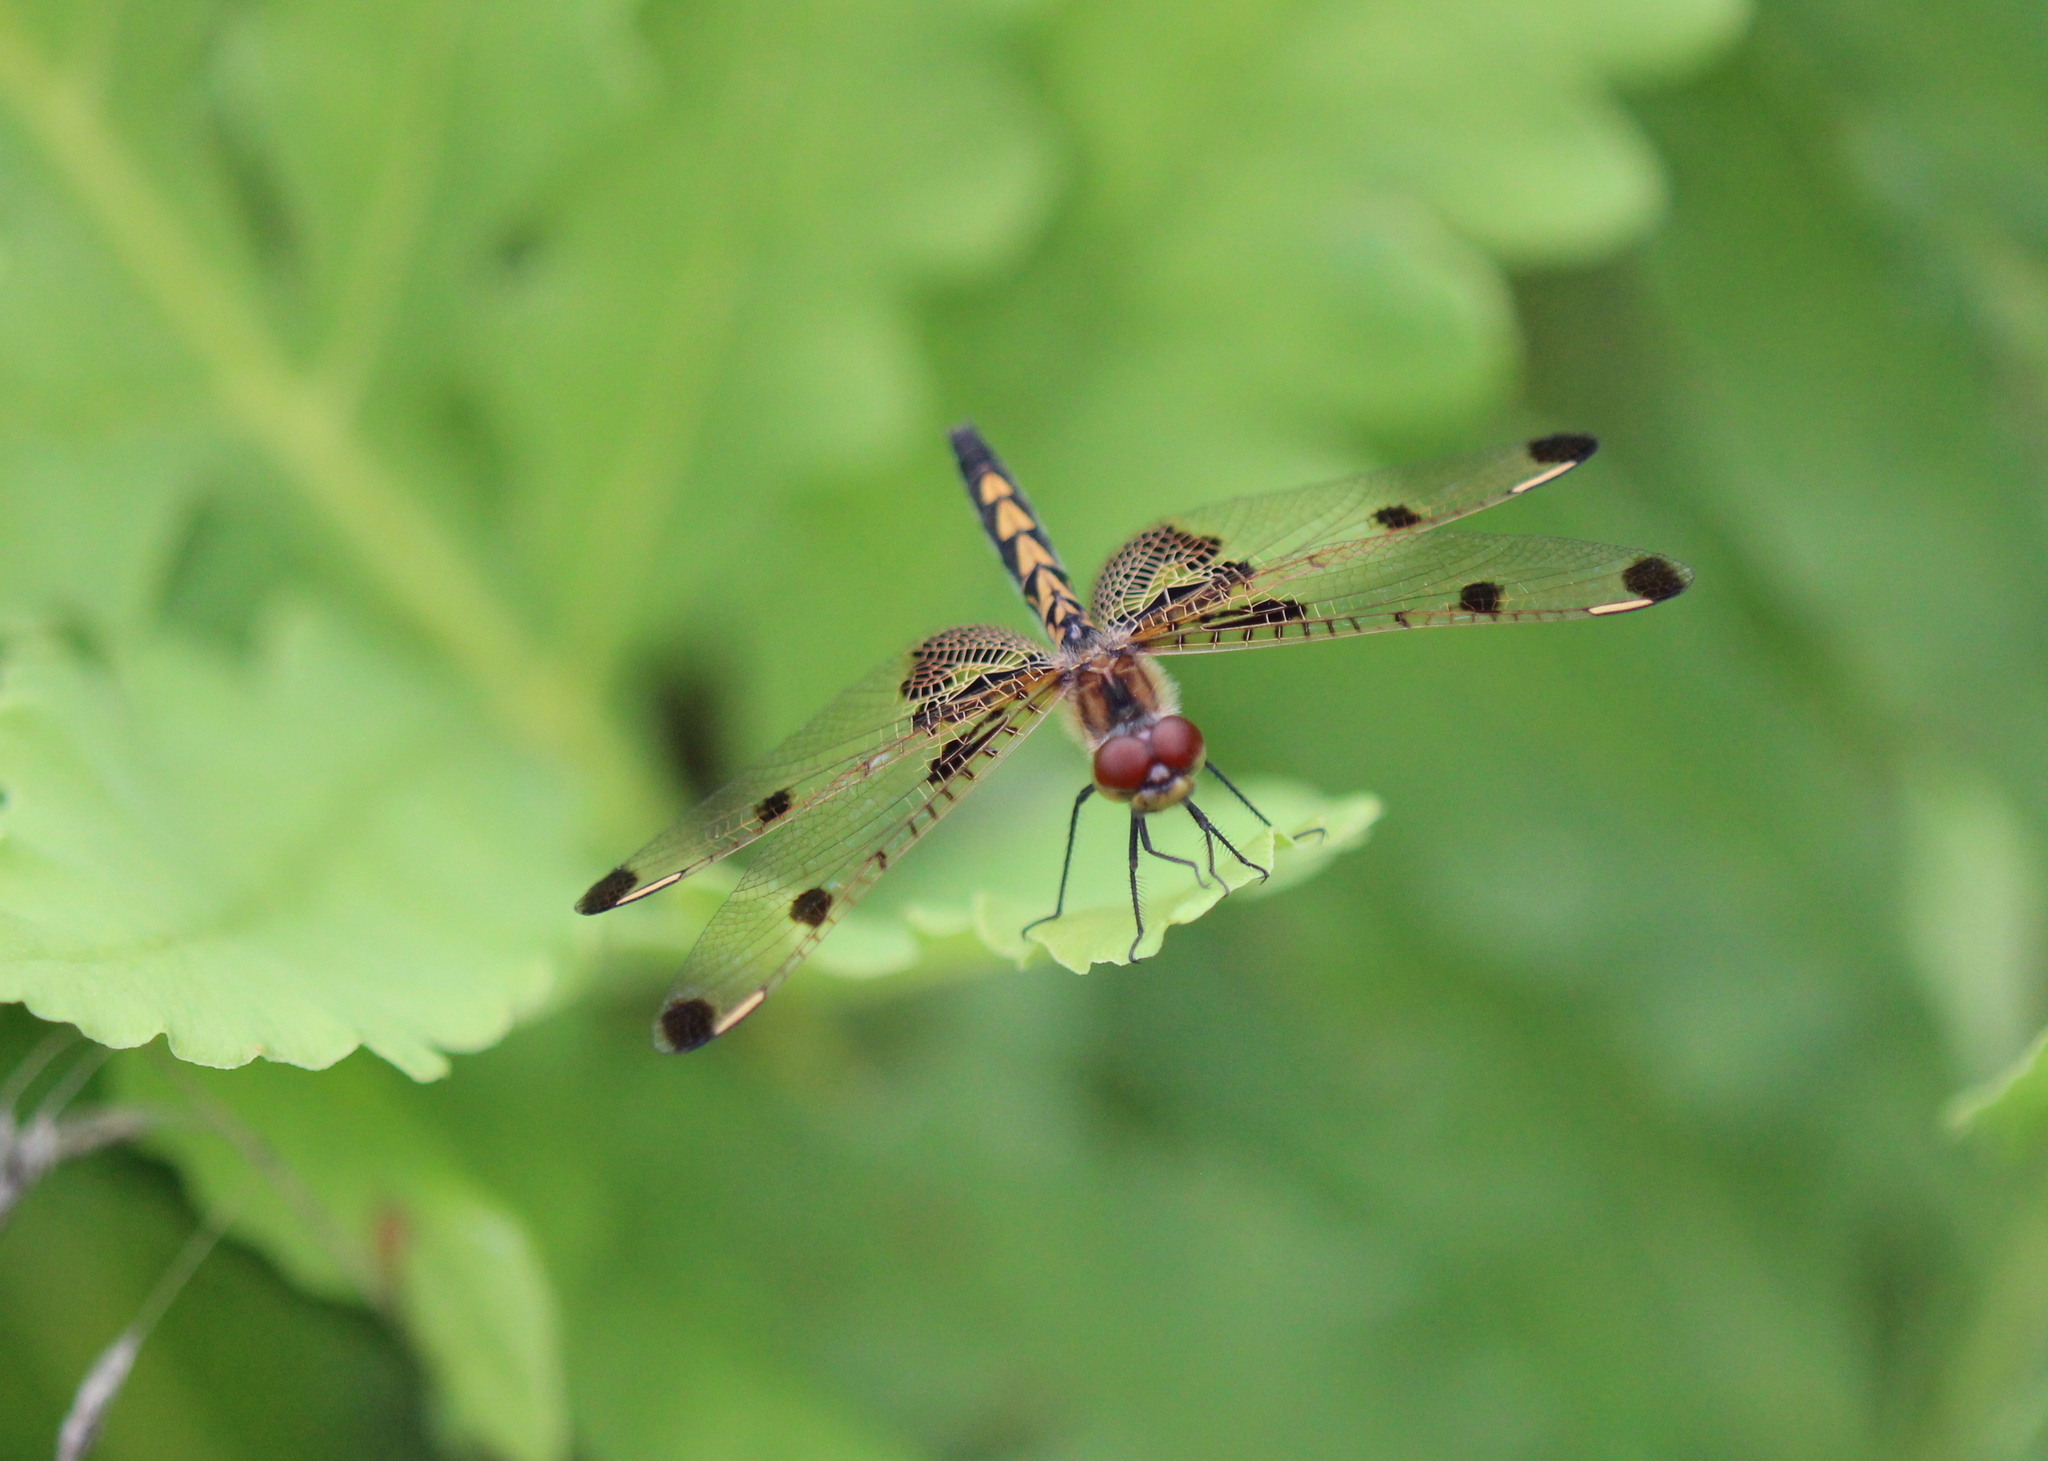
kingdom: Animalia
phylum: Arthropoda
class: Insecta
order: Odonata
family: Libellulidae
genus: Celithemis
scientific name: Celithemis elisa
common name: Calico pennant
